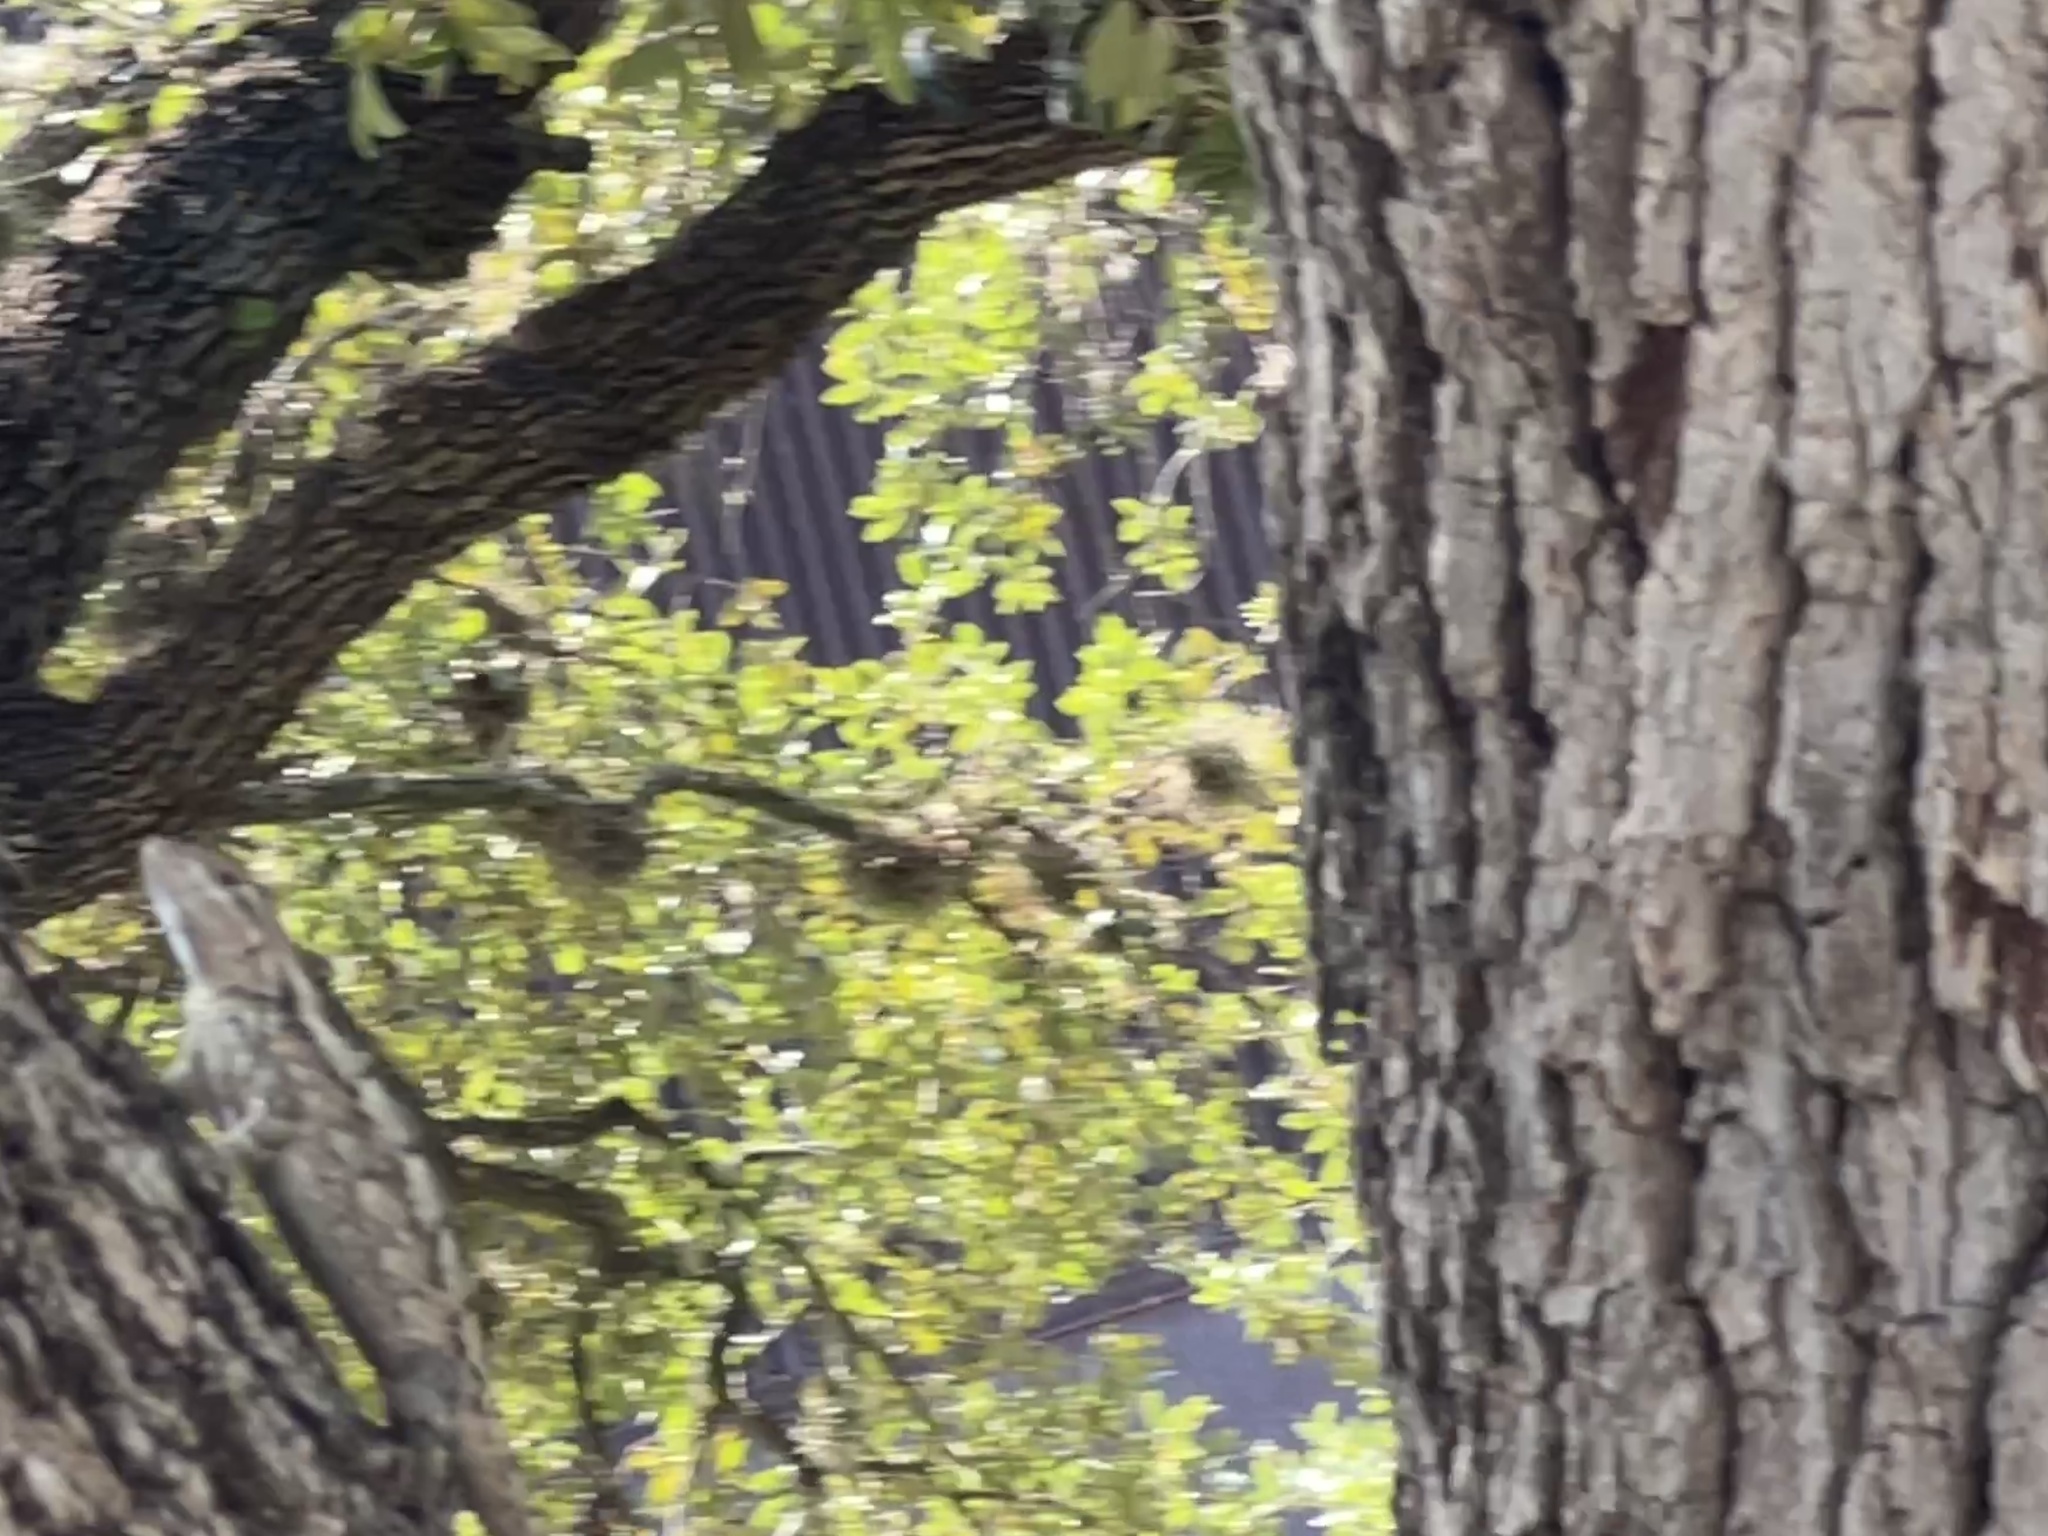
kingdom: Animalia
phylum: Chordata
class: Squamata
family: Phrynosomatidae
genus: Sceloporus
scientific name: Sceloporus olivaceus
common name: Texas spiny lizard
